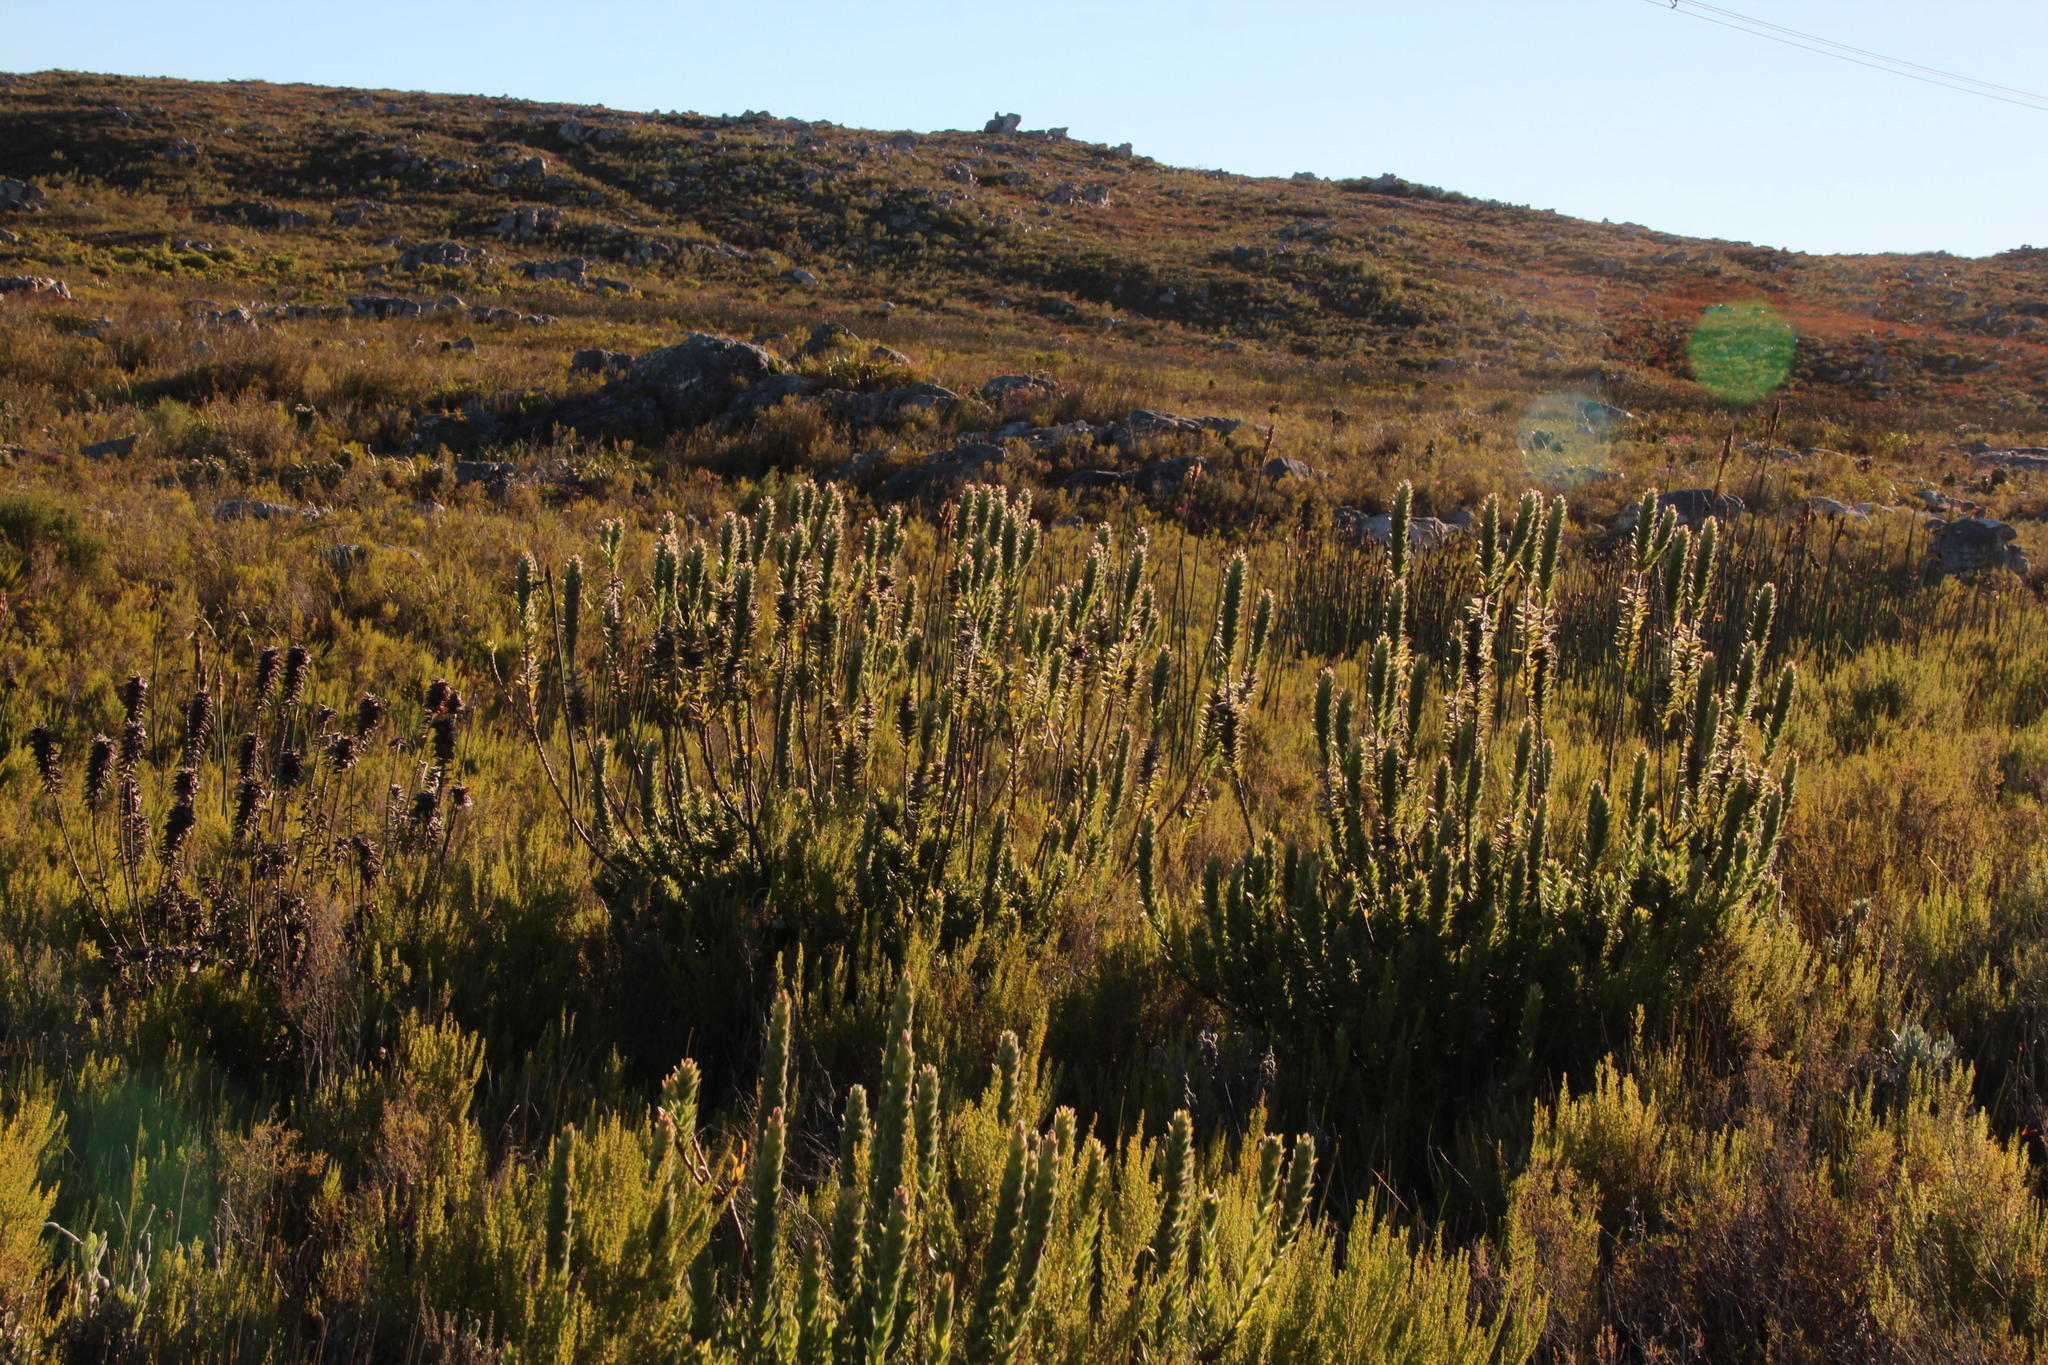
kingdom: Plantae
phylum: Tracheophyta
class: Magnoliopsida
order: Proteales
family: Proteaceae
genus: Mimetes
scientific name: Mimetes capitulatus
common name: Conical pagoda
